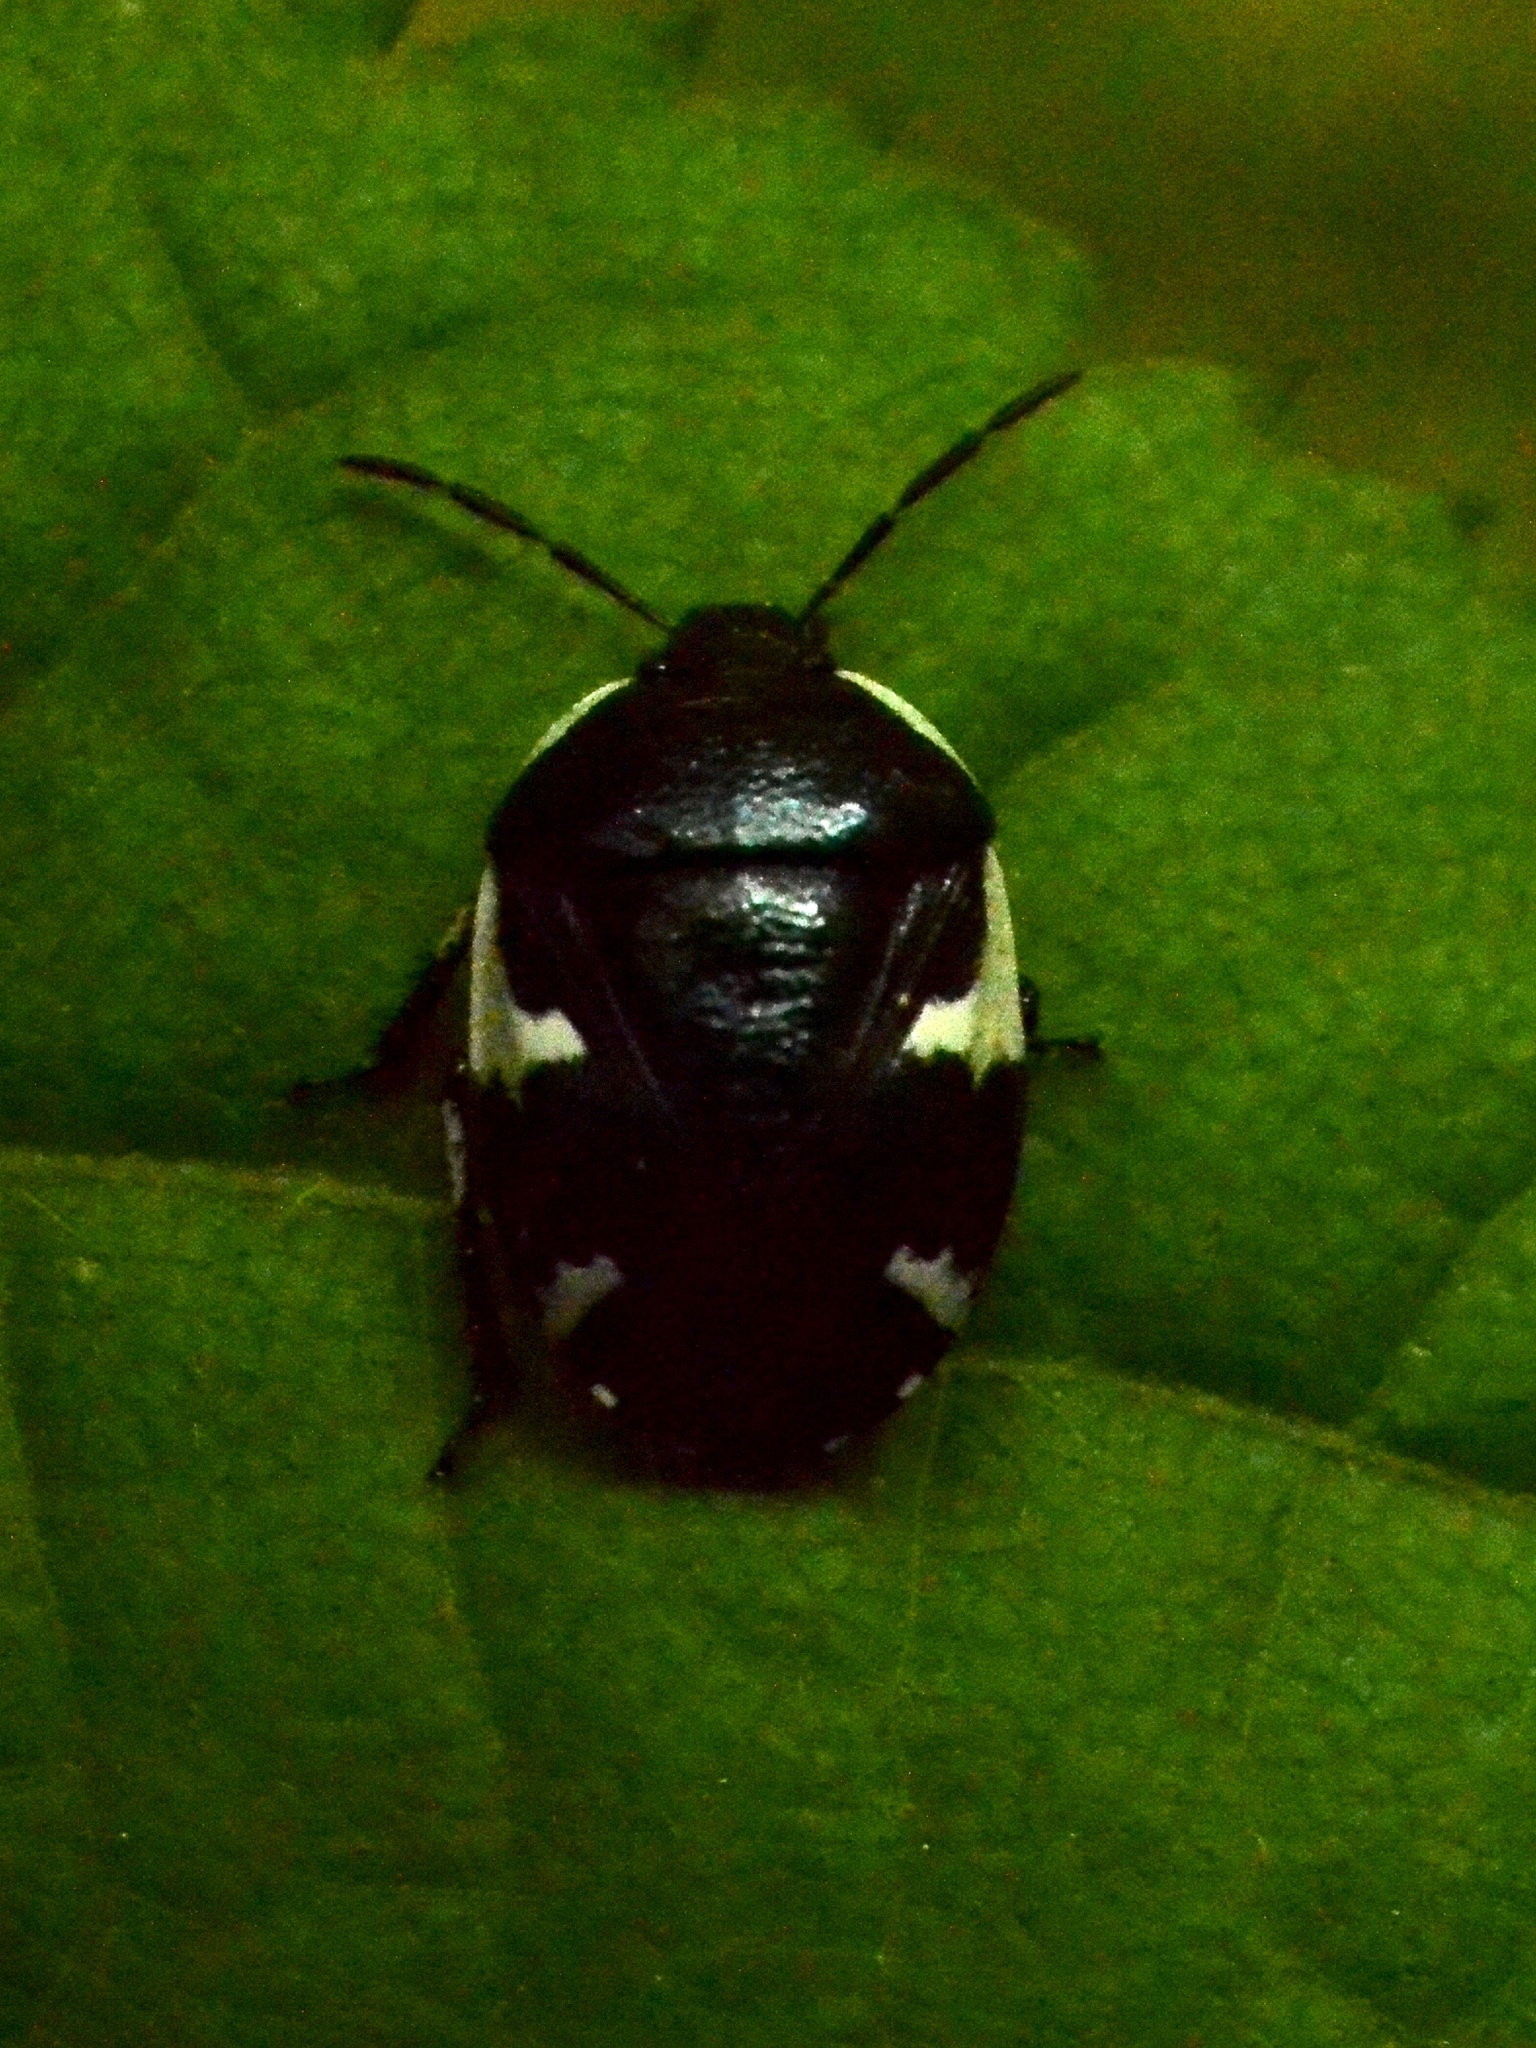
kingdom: Animalia
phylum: Arthropoda
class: Insecta
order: Hemiptera
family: Cydnidae
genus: Tritomegas
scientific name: Tritomegas sexmaculatus
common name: Rambur's pied shieldbug
